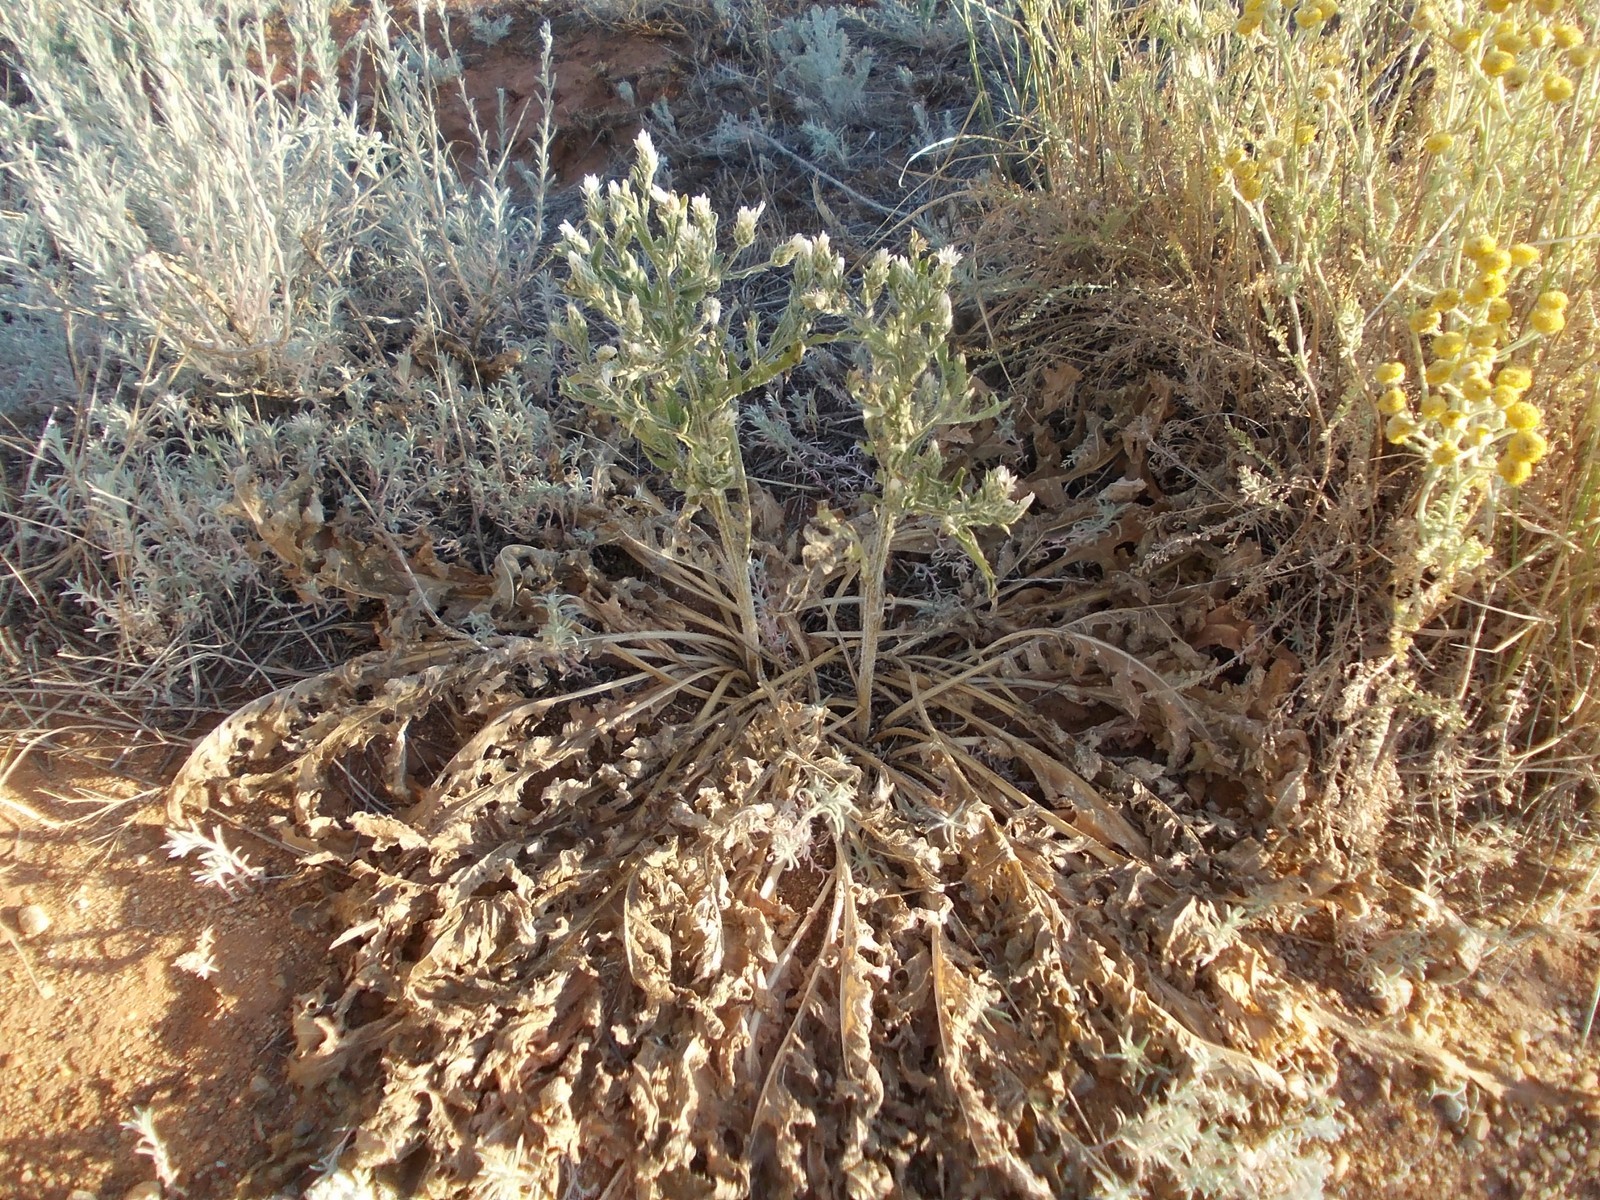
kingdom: Plantae
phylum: Tracheophyta
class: Magnoliopsida
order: Asterales
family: Asteraceae
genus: Klasea
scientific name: Klasea erucifolia
